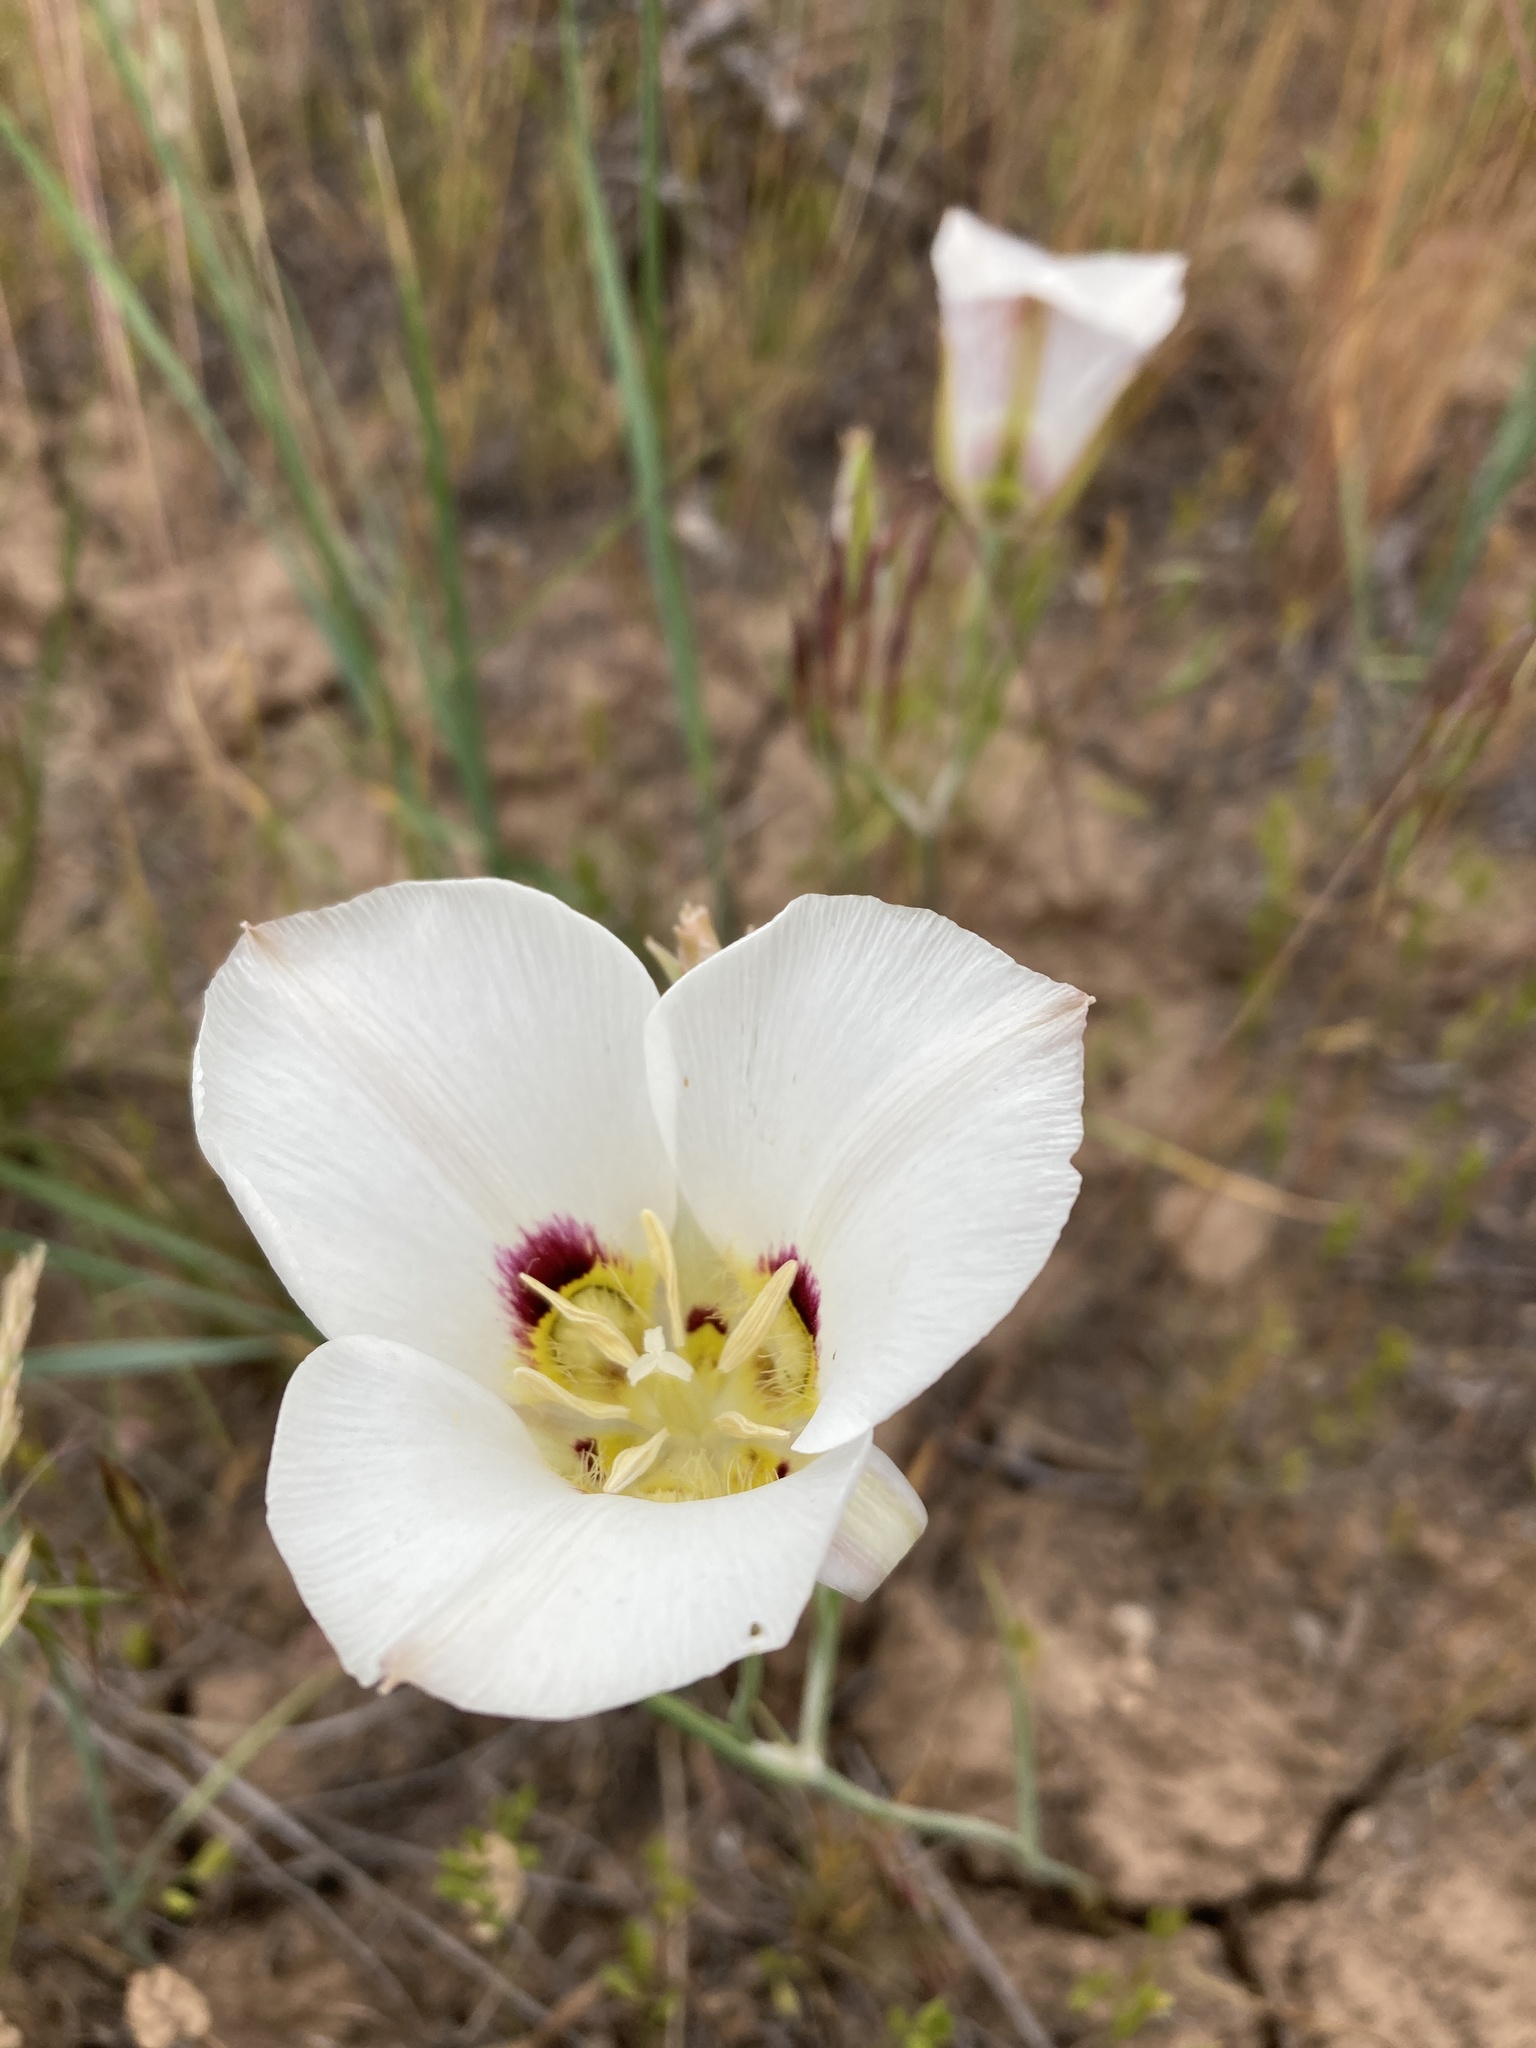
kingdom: Plantae
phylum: Tracheophyta
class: Liliopsida
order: Liliales
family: Liliaceae
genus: Calochortus
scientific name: Calochortus nuttallii
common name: Sego-lily
